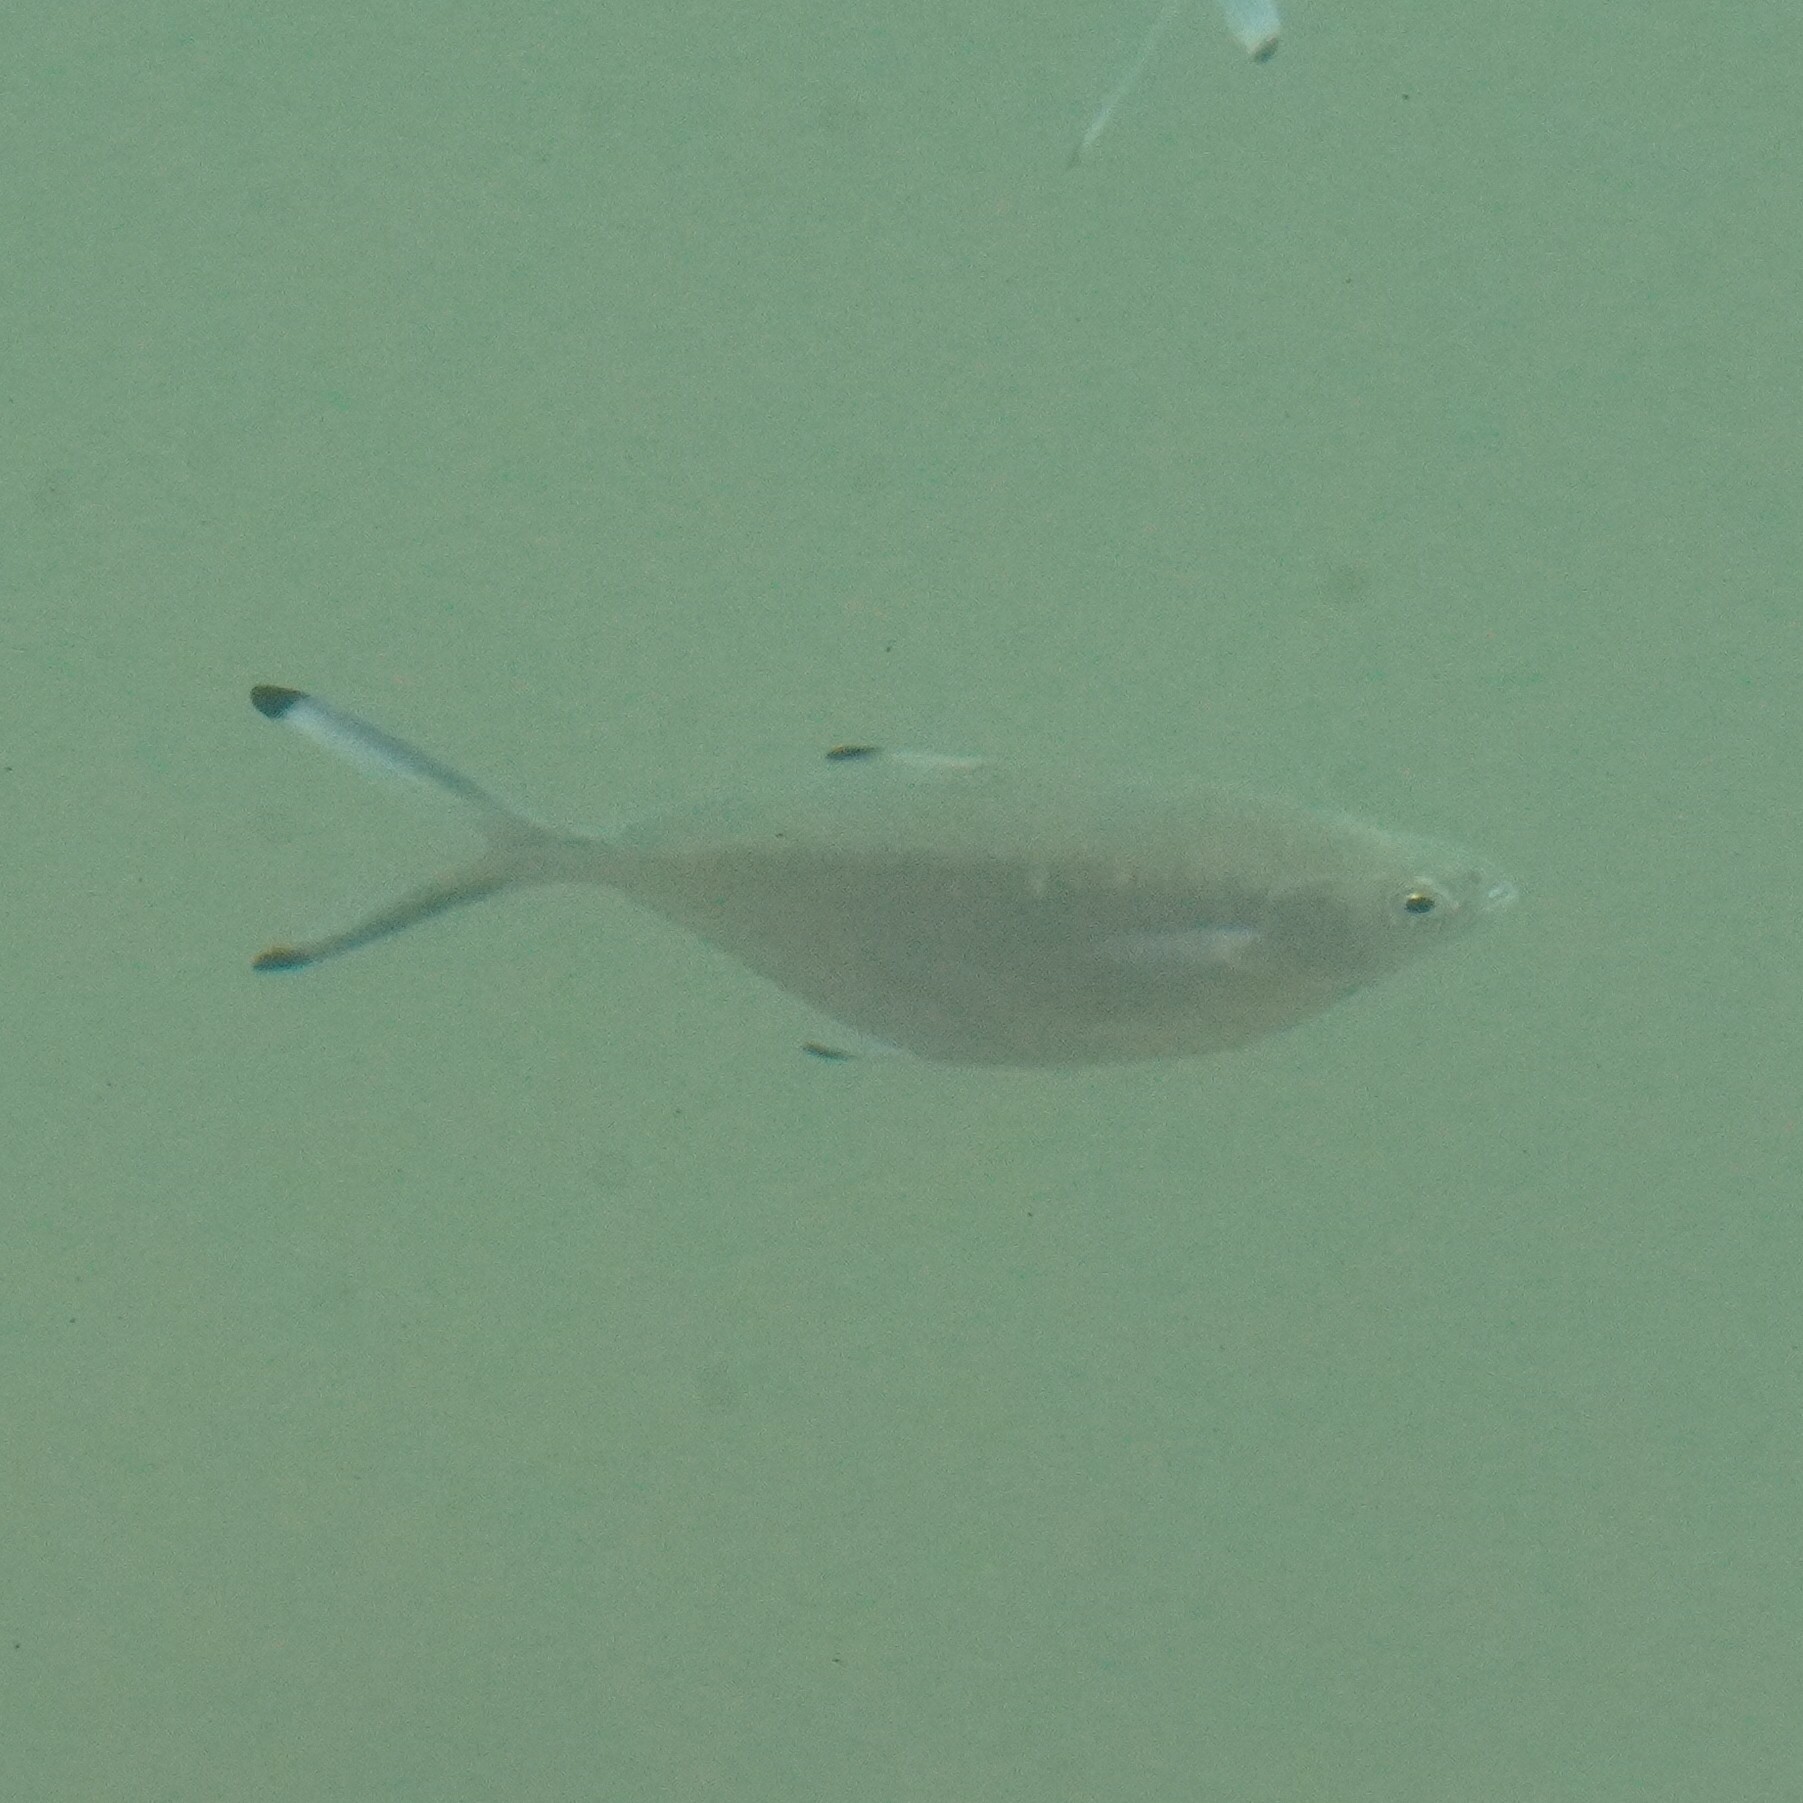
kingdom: Animalia
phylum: Chordata
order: Perciformes
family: Carangidae
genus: Trachinotus
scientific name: Trachinotus ovatus
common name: Pompano
